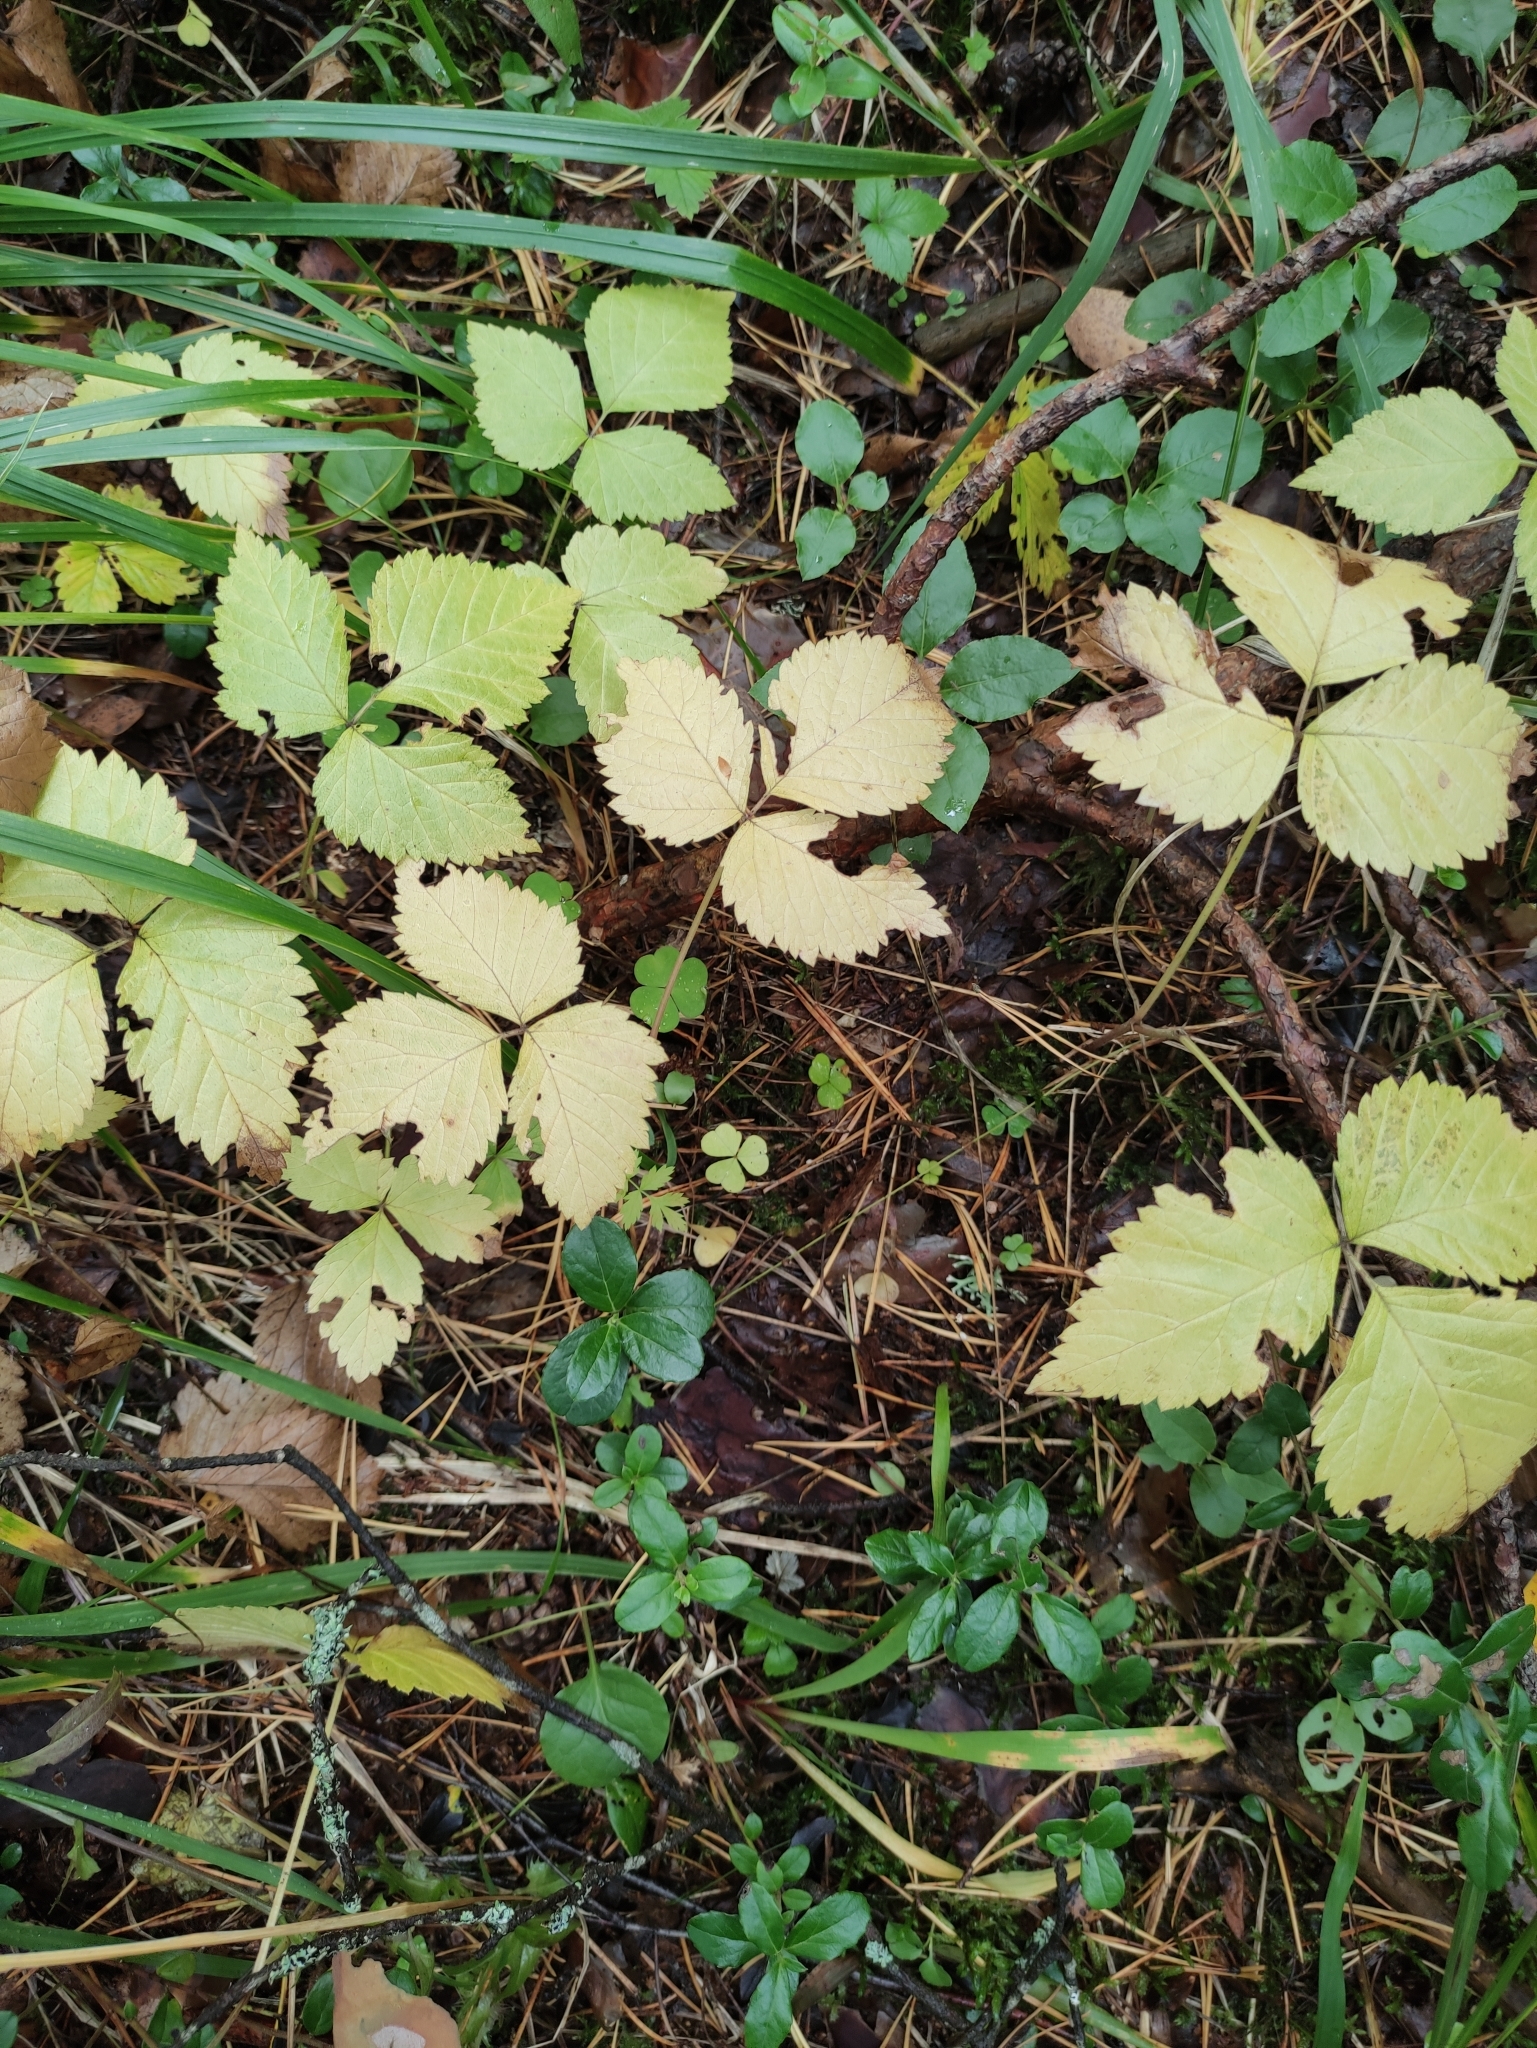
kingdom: Plantae
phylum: Tracheophyta
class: Magnoliopsida
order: Rosales
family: Rosaceae
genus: Rubus
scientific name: Rubus saxatilis
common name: Stone bramble
